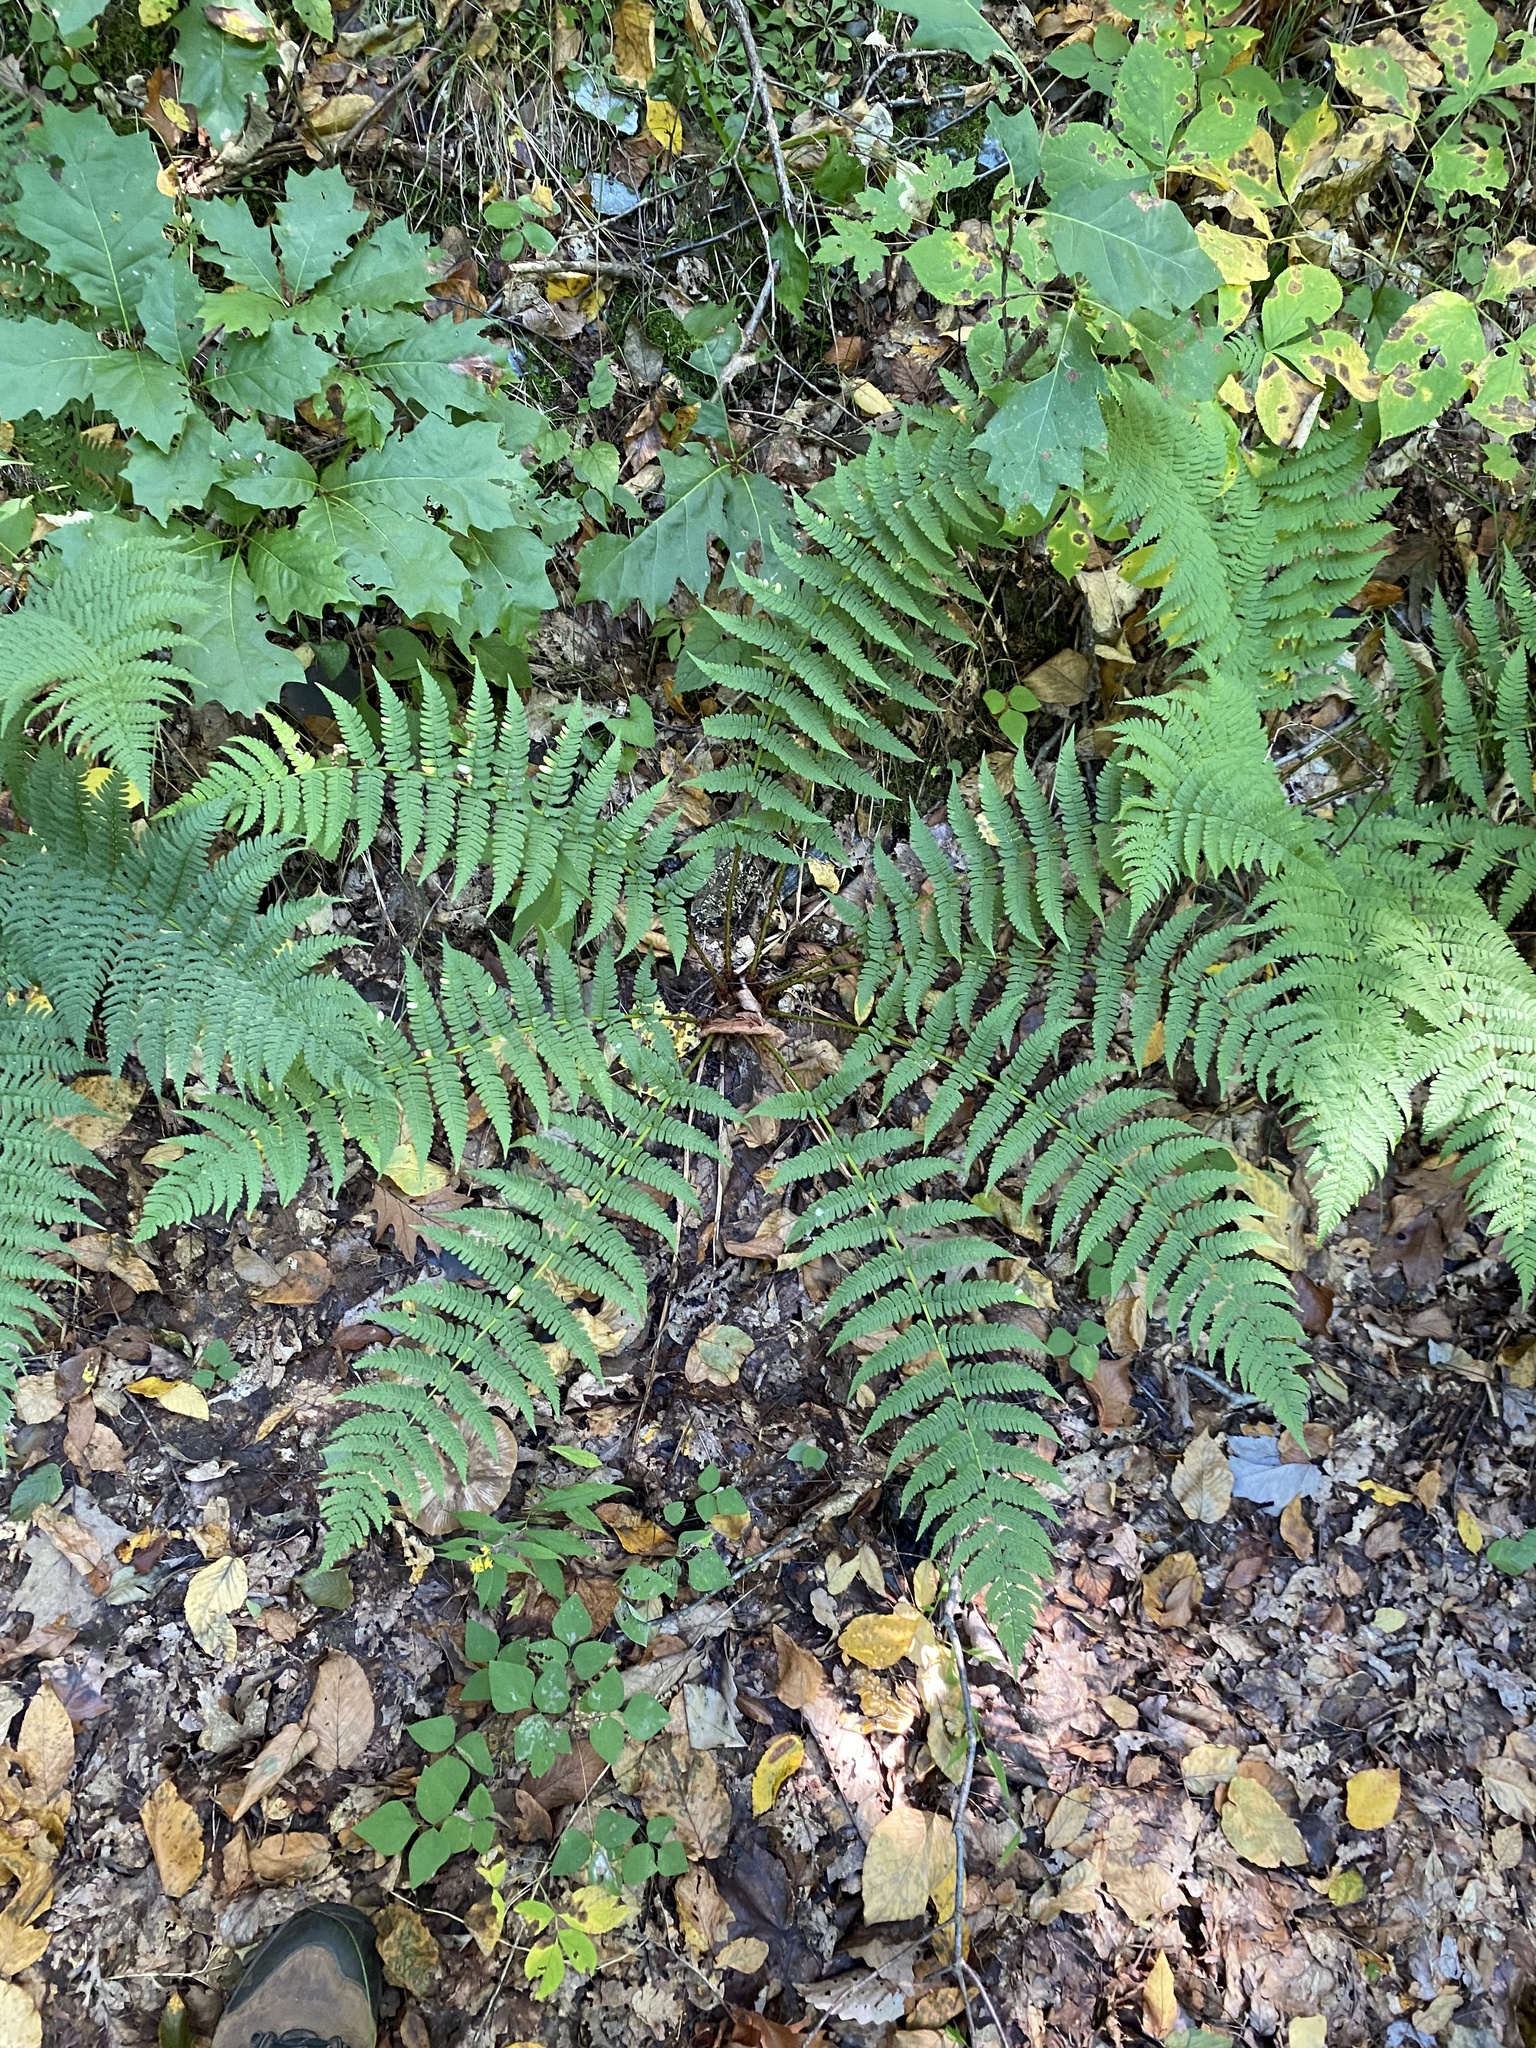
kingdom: Plantae
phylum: Tracheophyta
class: Polypodiopsida
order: Polypodiales
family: Dryopteridaceae
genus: Dryopteris
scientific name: Dryopteris marginalis
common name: Marginal wood fern
